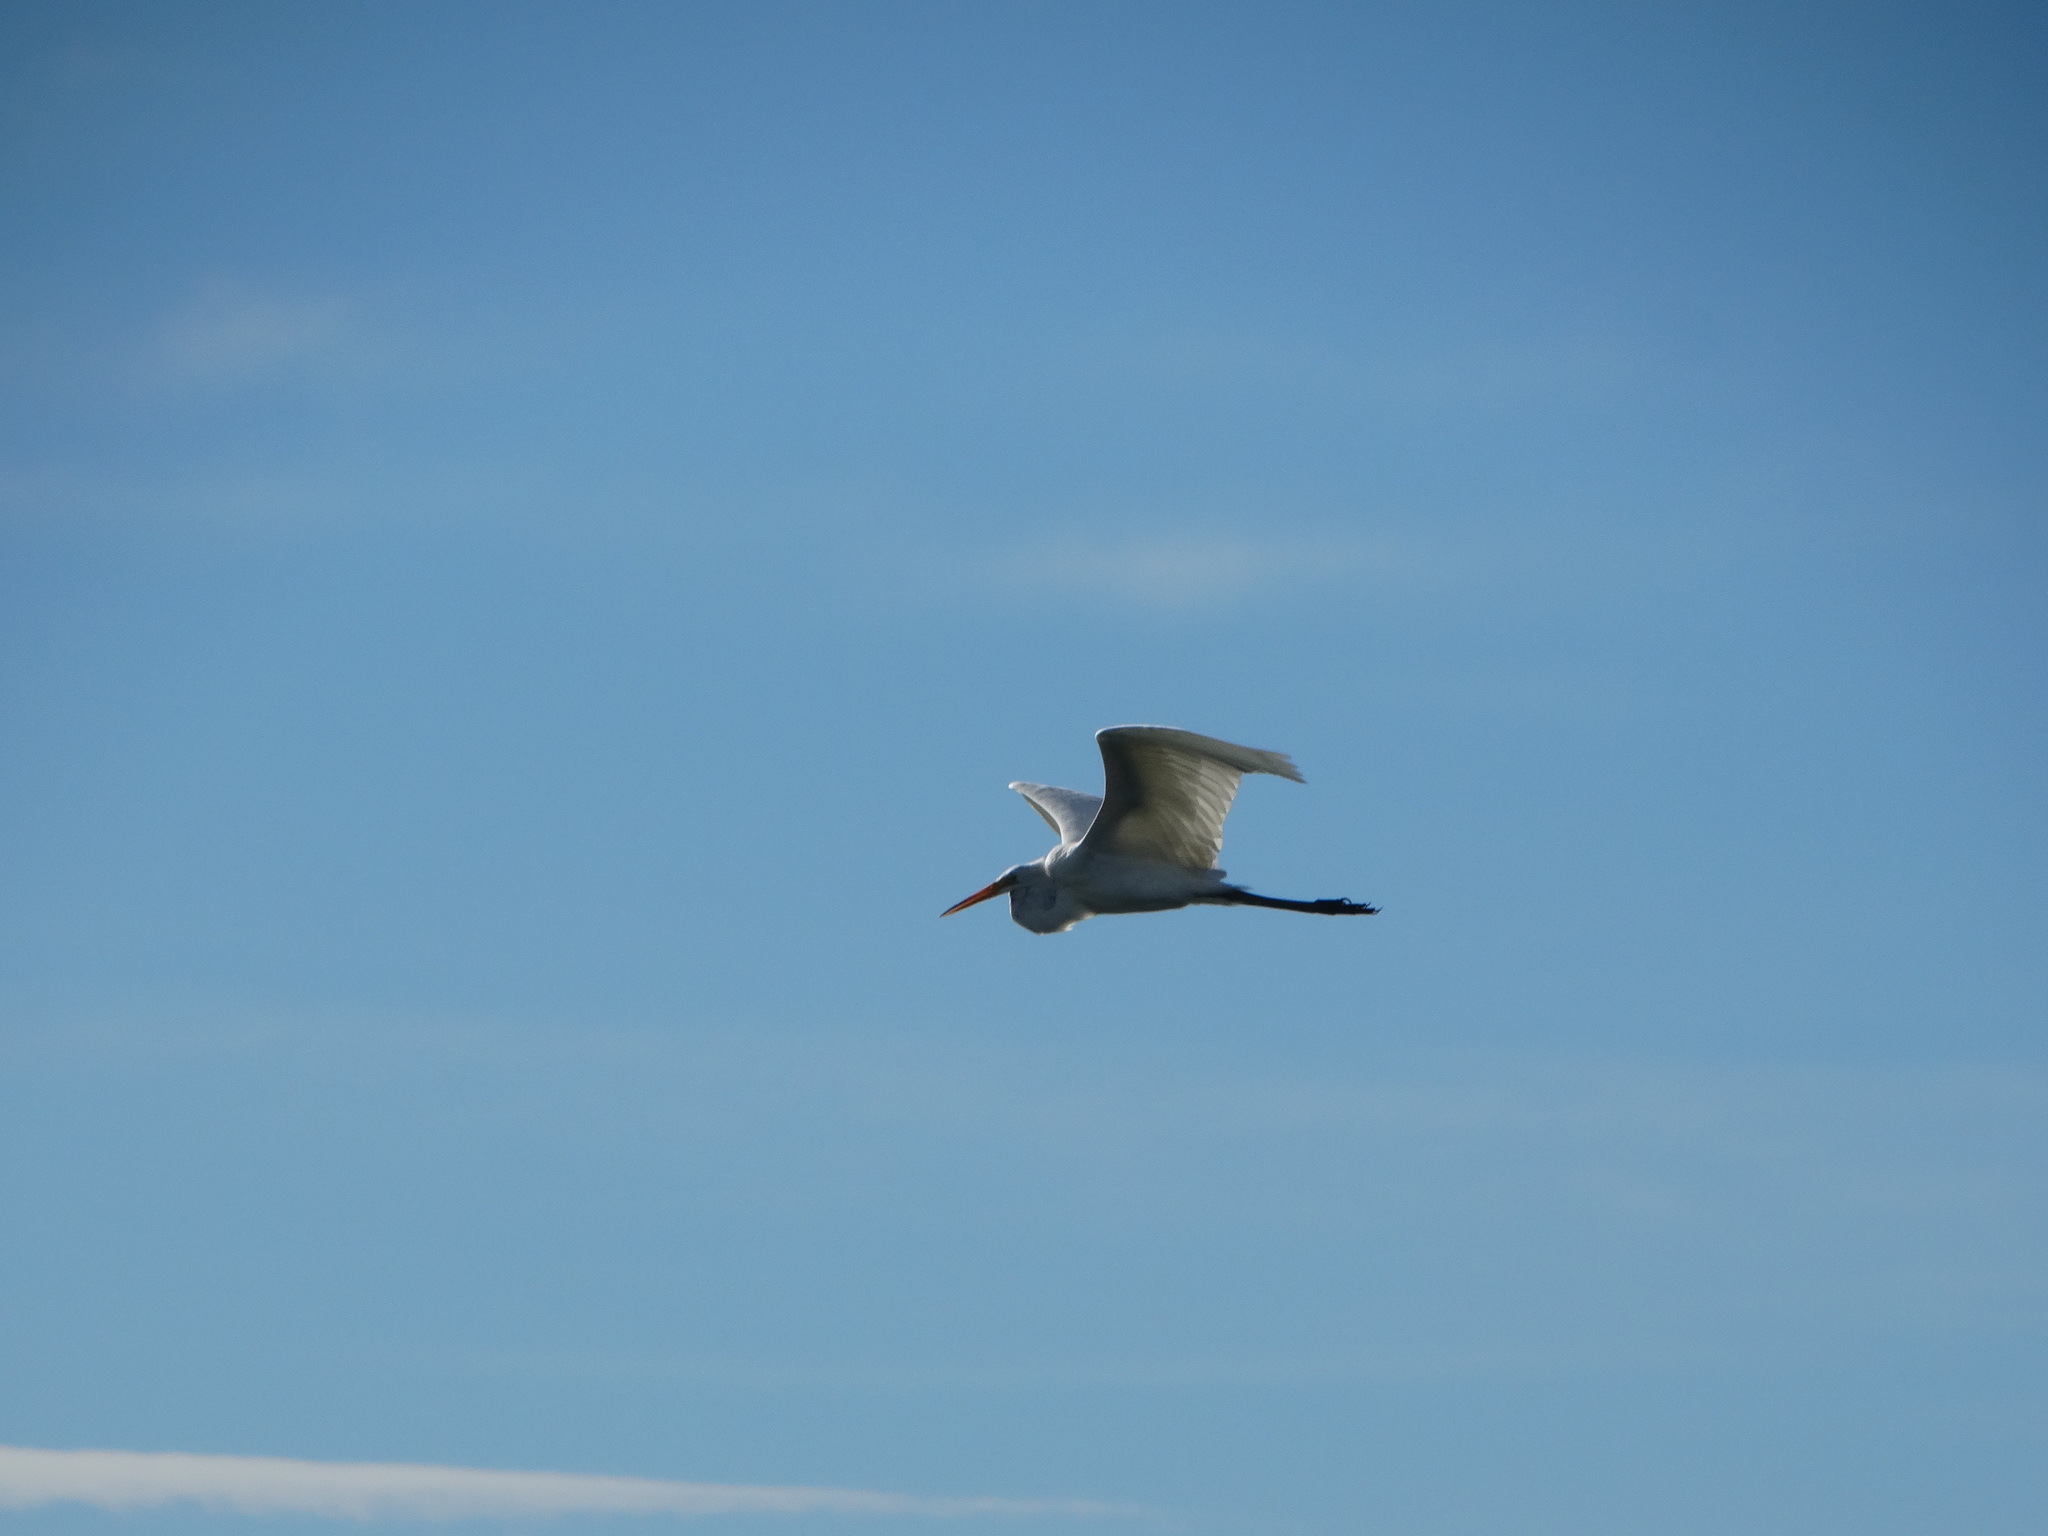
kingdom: Animalia
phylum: Chordata
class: Aves
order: Pelecaniformes
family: Ardeidae
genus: Ardea
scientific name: Ardea alba
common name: Great egret
